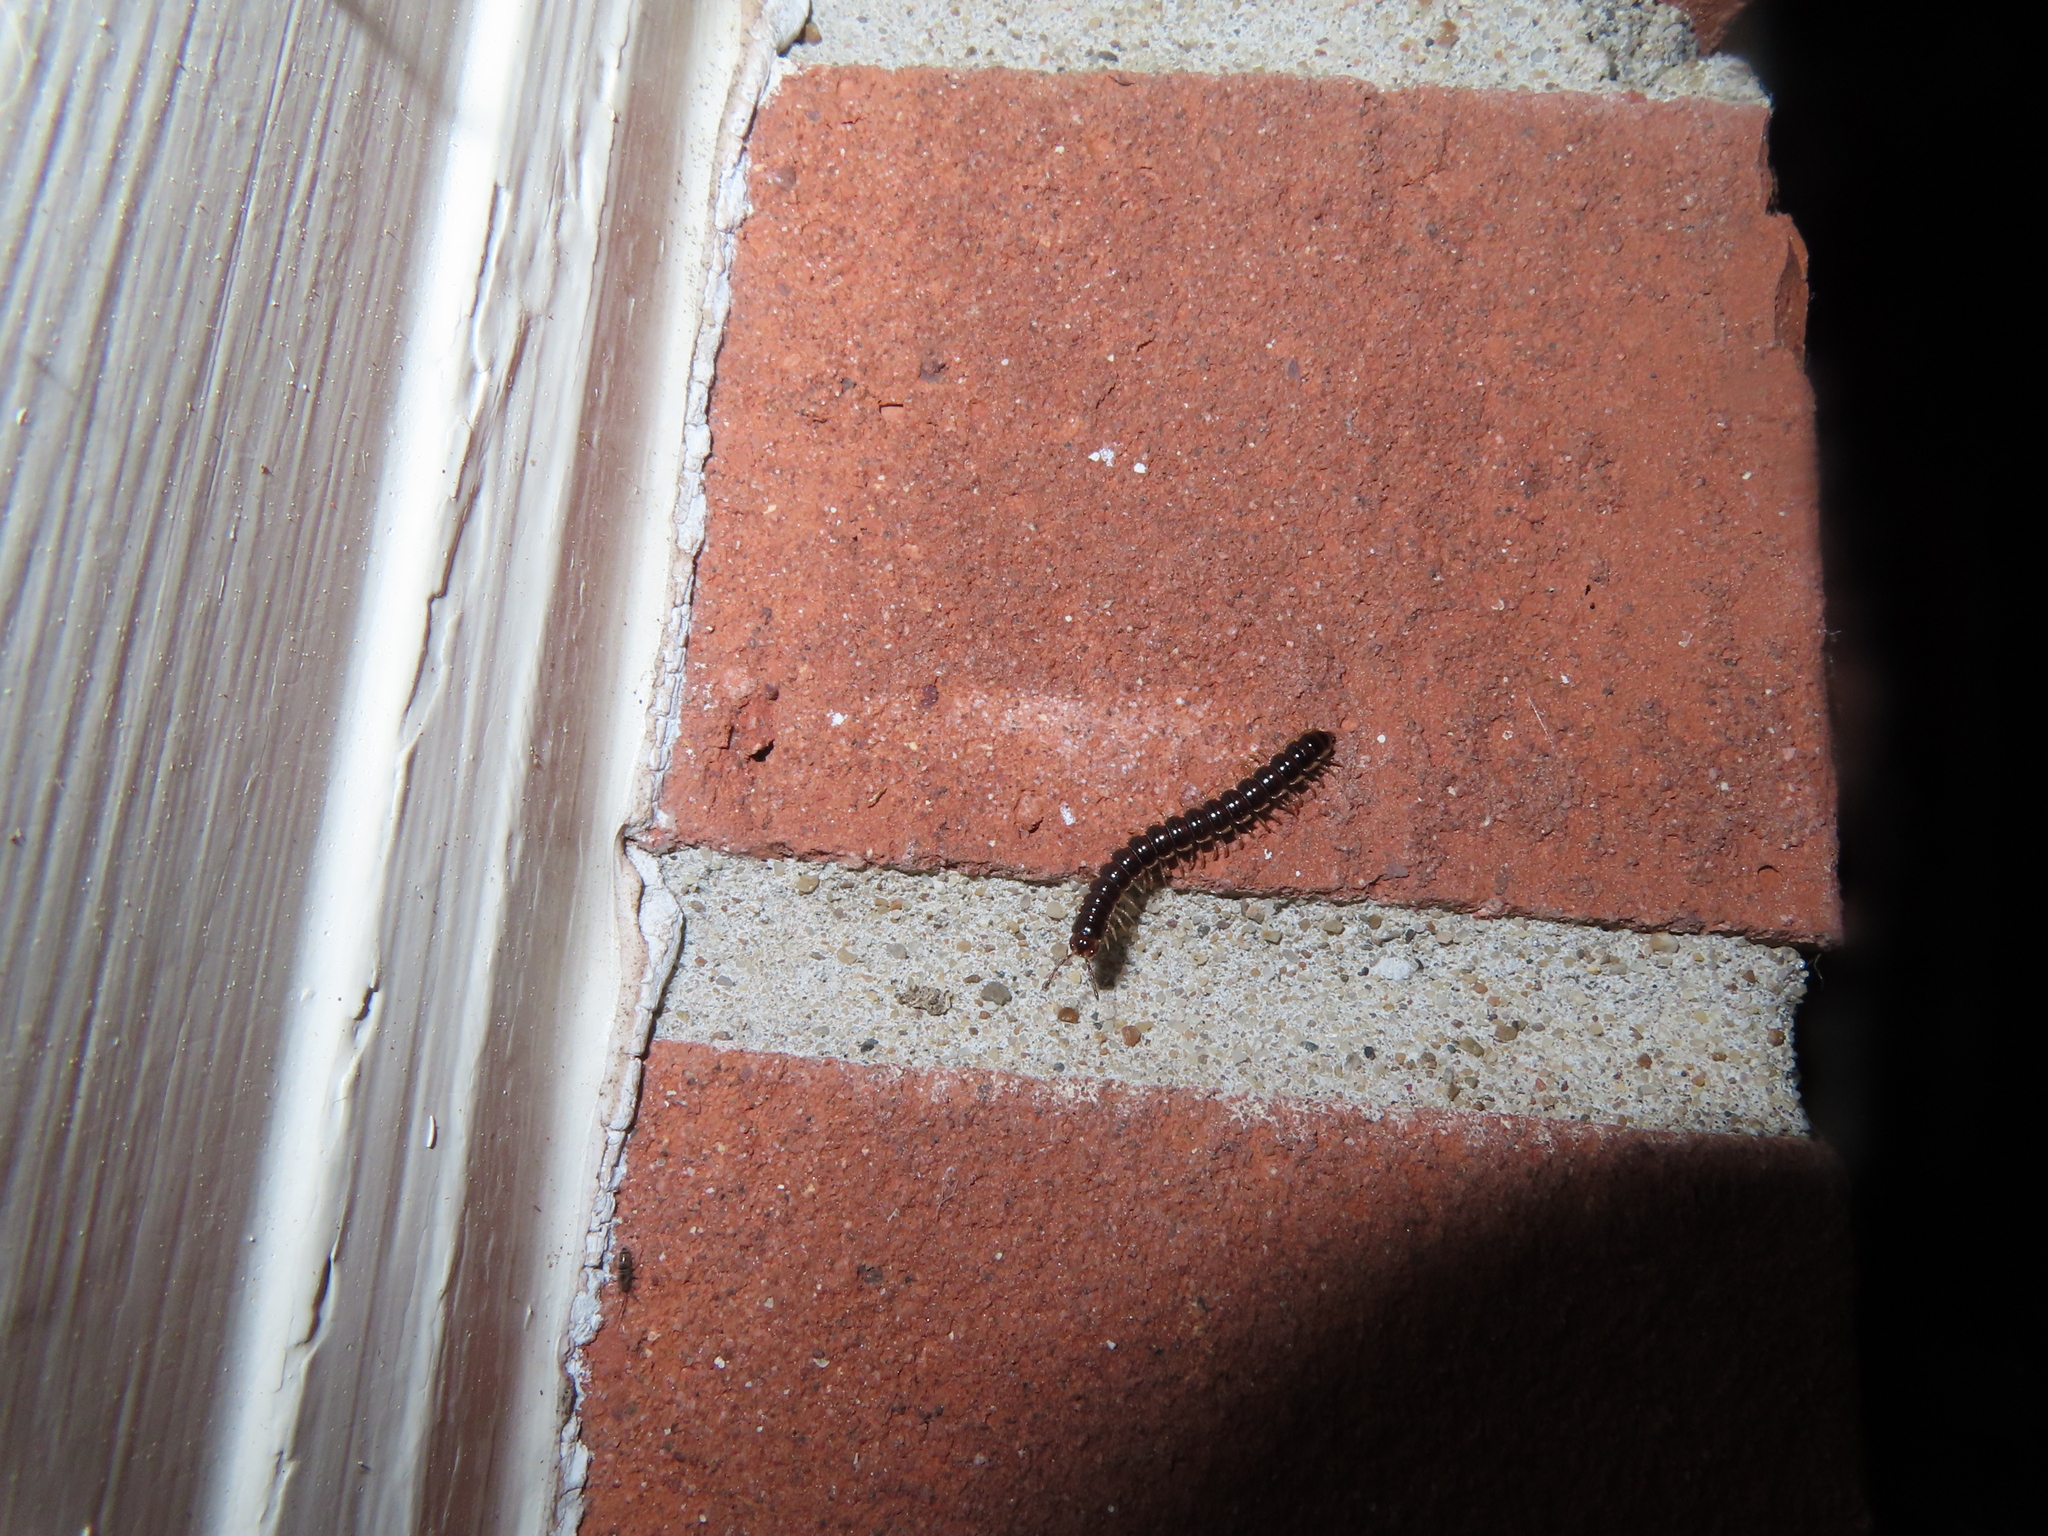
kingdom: Animalia
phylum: Arthropoda
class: Diplopoda
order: Polydesmida
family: Paradoxosomatidae
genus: Oxidus
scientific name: Oxidus gracilis
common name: Greenhouse millipede
